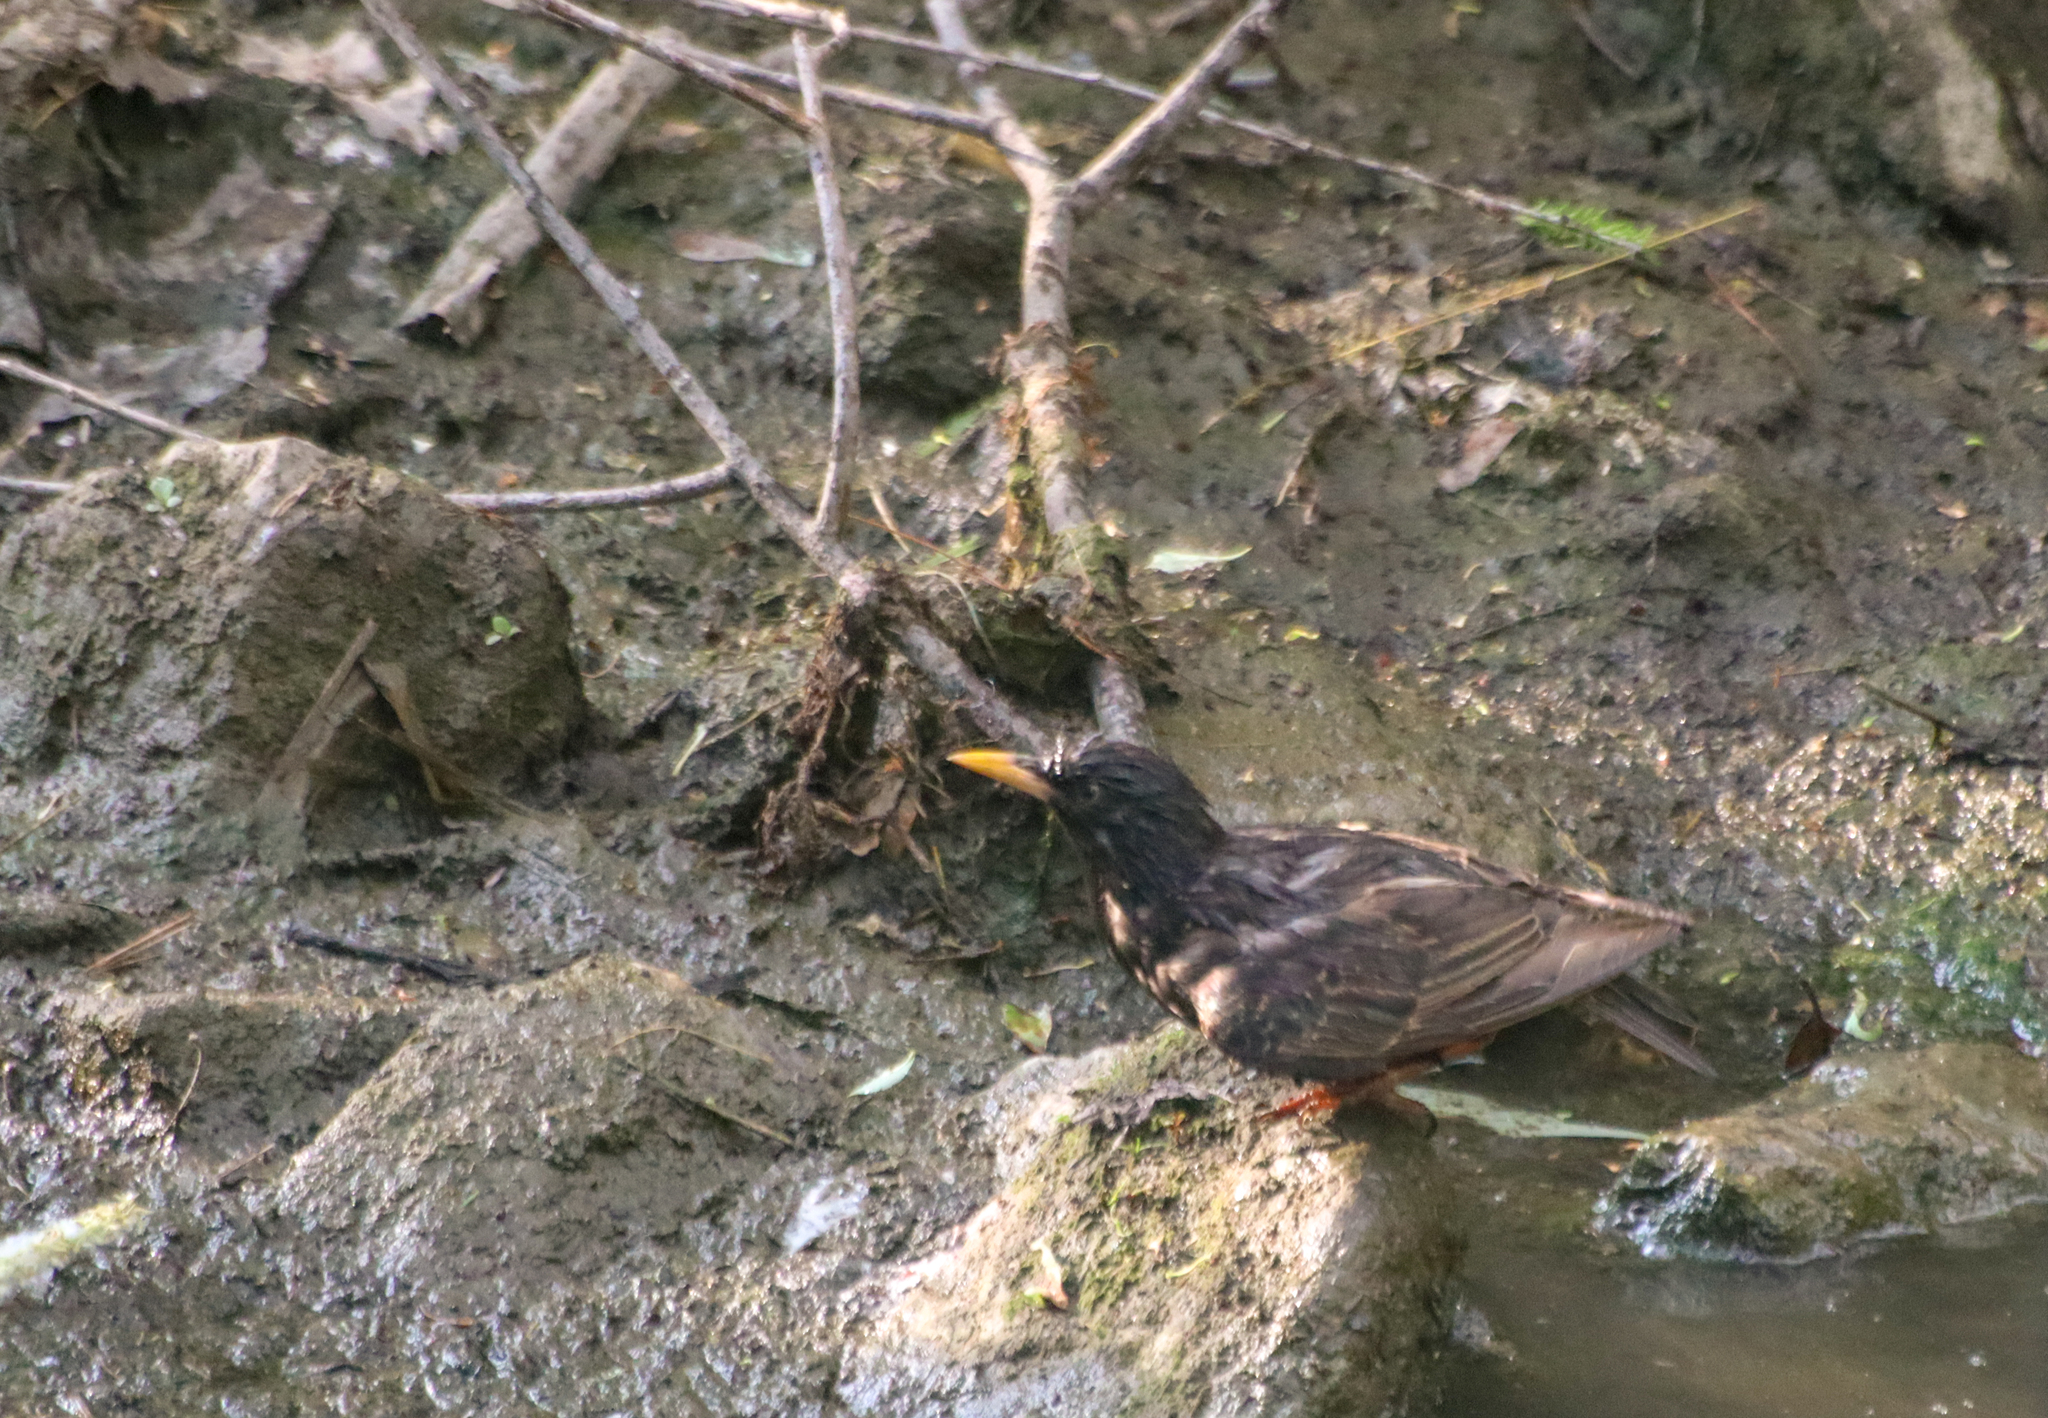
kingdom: Animalia
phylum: Chordata
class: Aves
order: Passeriformes
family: Sturnidae
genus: Sturnus
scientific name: Sturnus vulgaris
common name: Common starling
